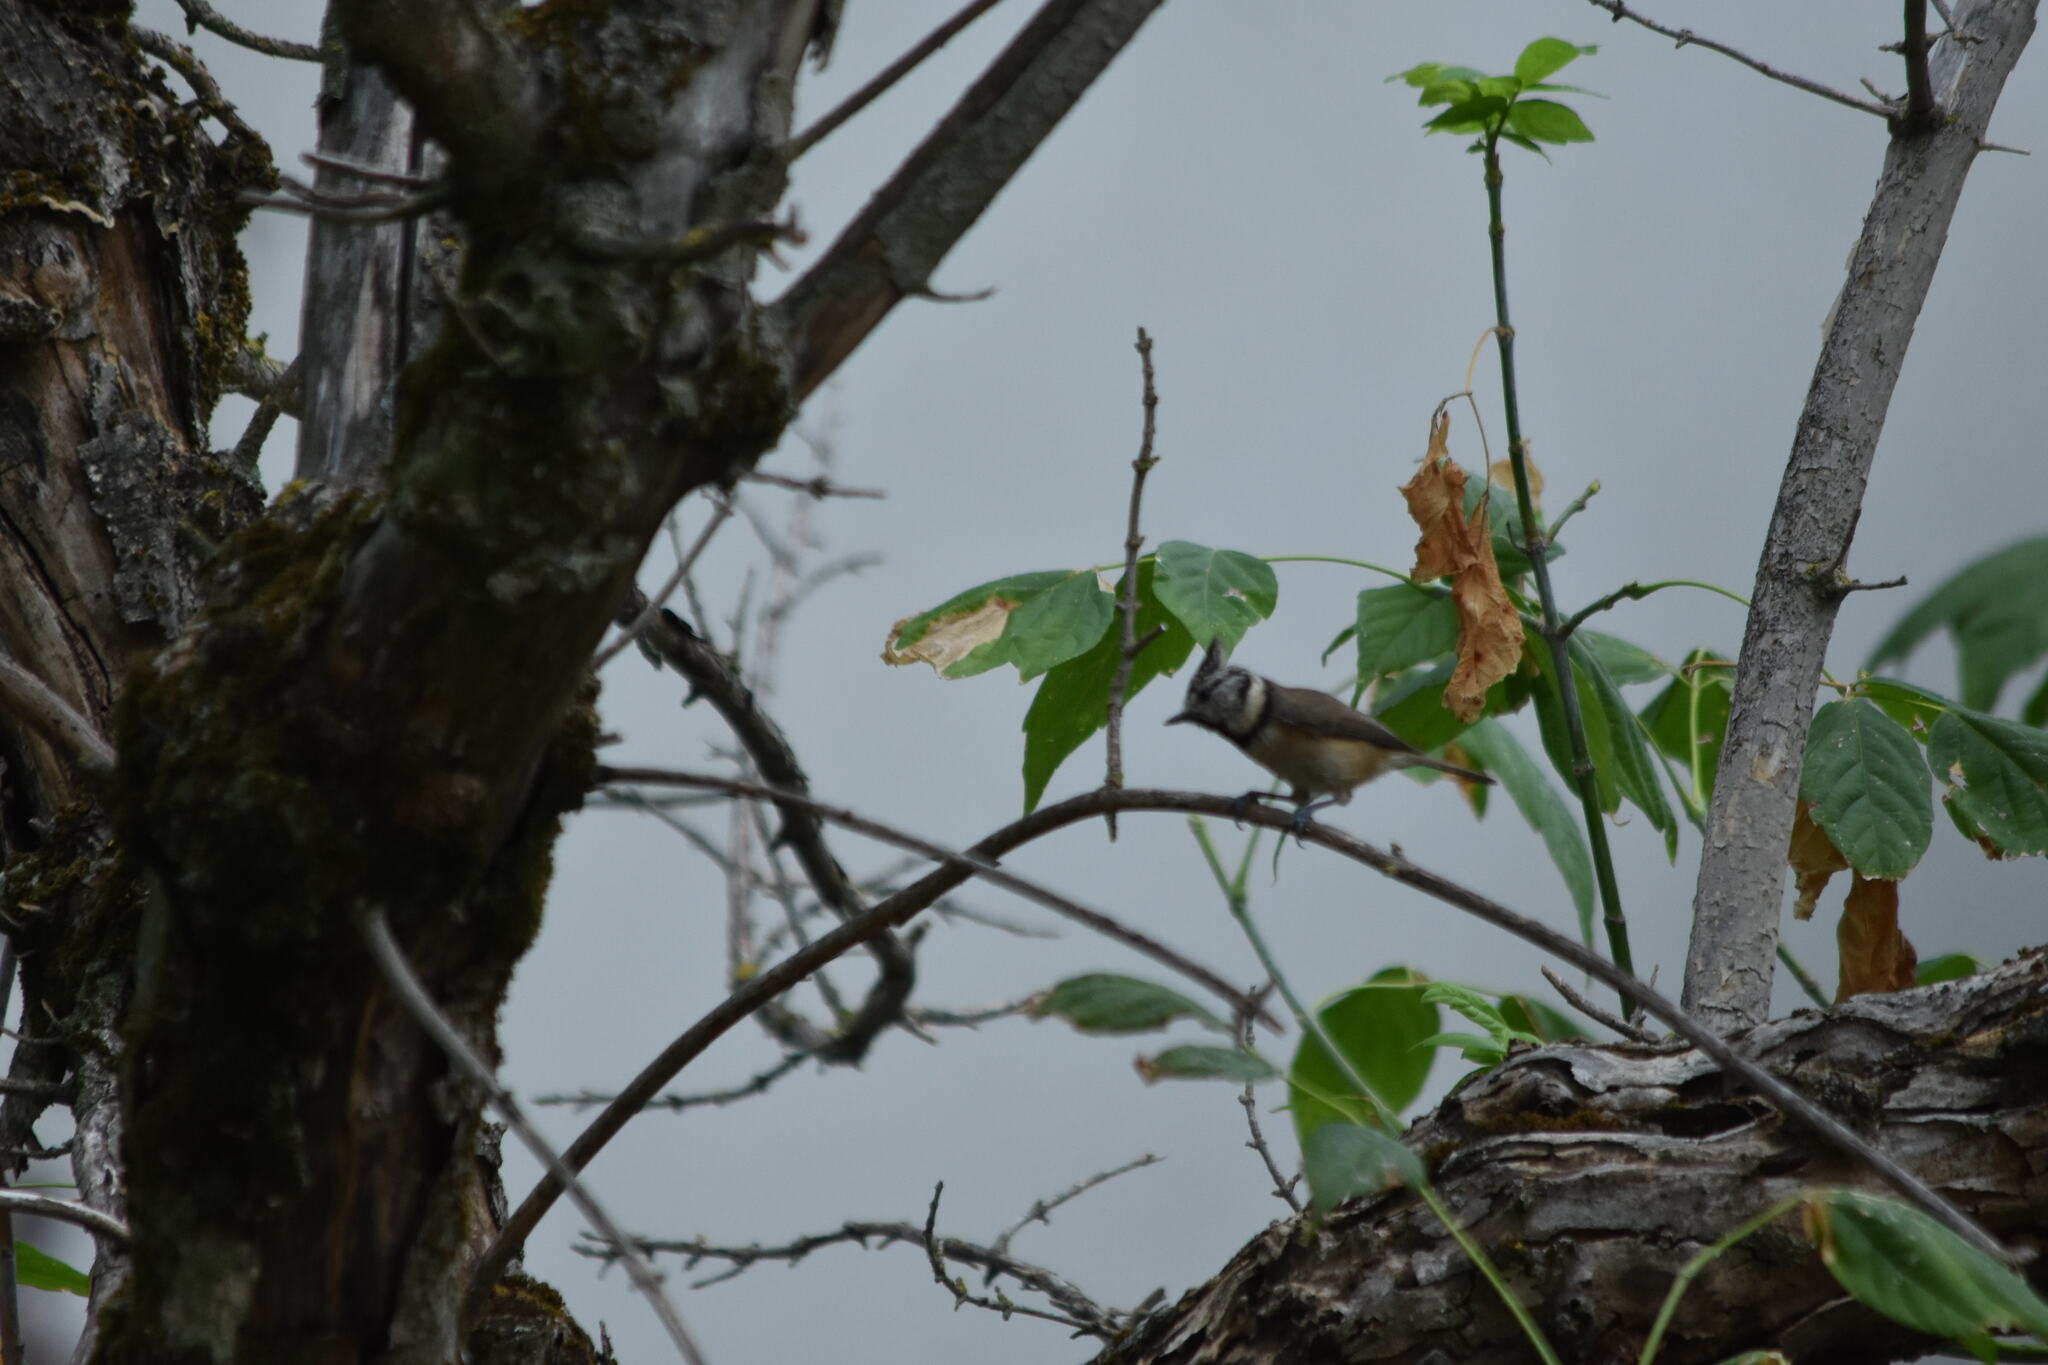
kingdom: Animalia
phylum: Chordata
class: Aves
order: Passeriformes
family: Paridae
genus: Lophophanes
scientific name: Lophophanes cristatus
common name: European crested tit
